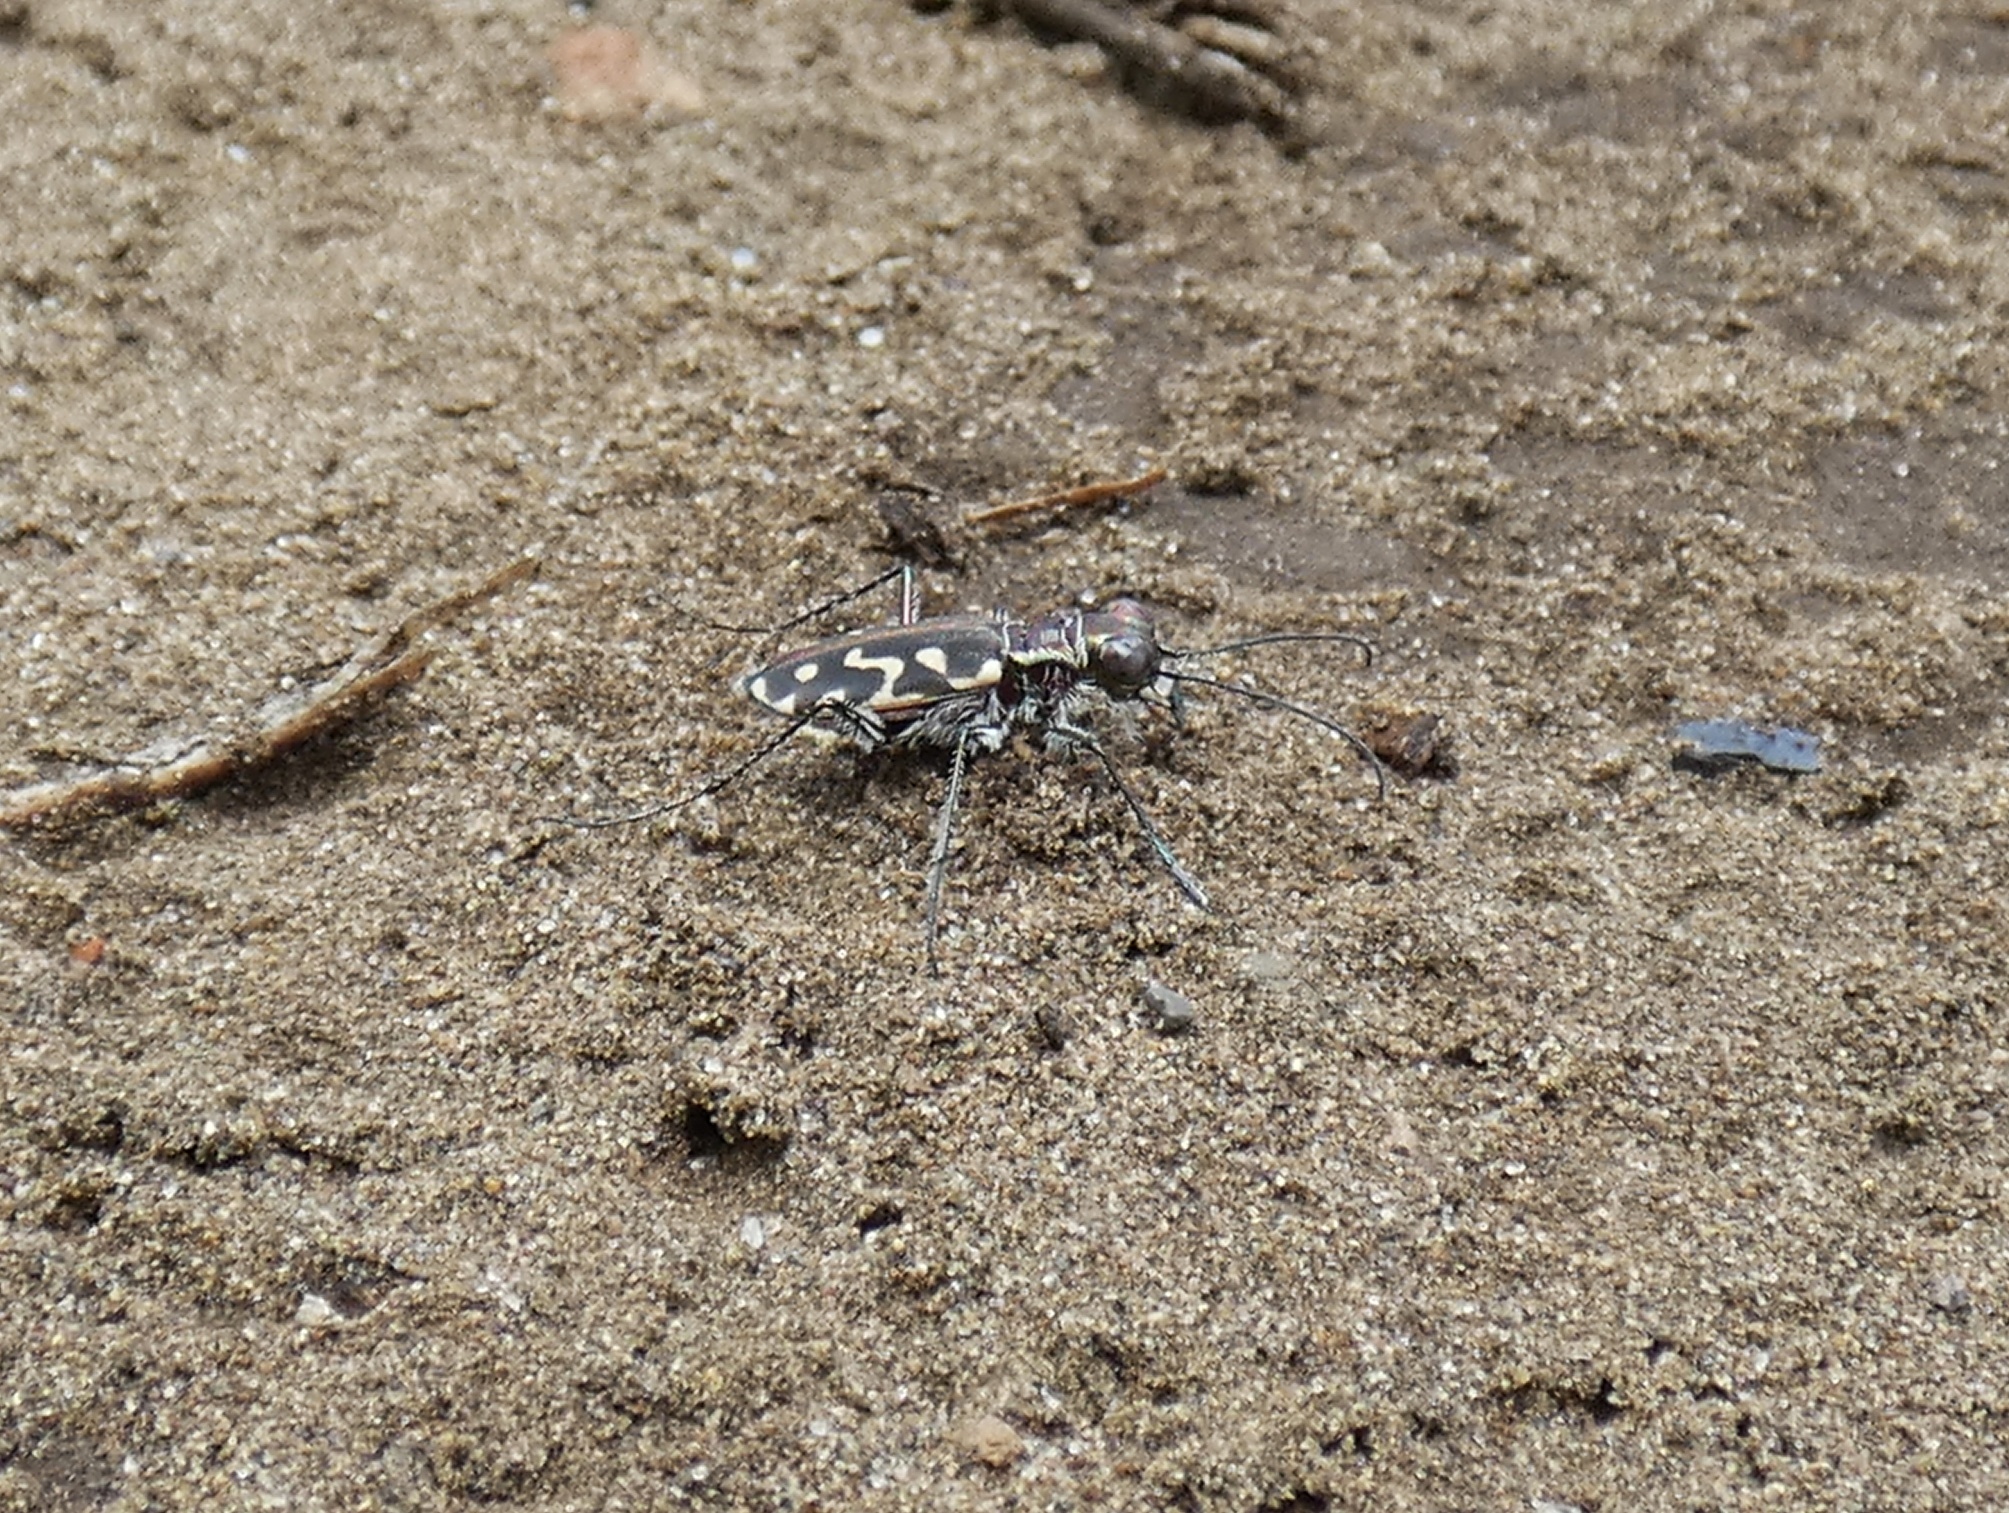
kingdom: Animalia
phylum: Arthropoda
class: Insecta
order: Coleoptera
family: Carabidae
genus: Cicindela
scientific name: Cicindela carthagena
